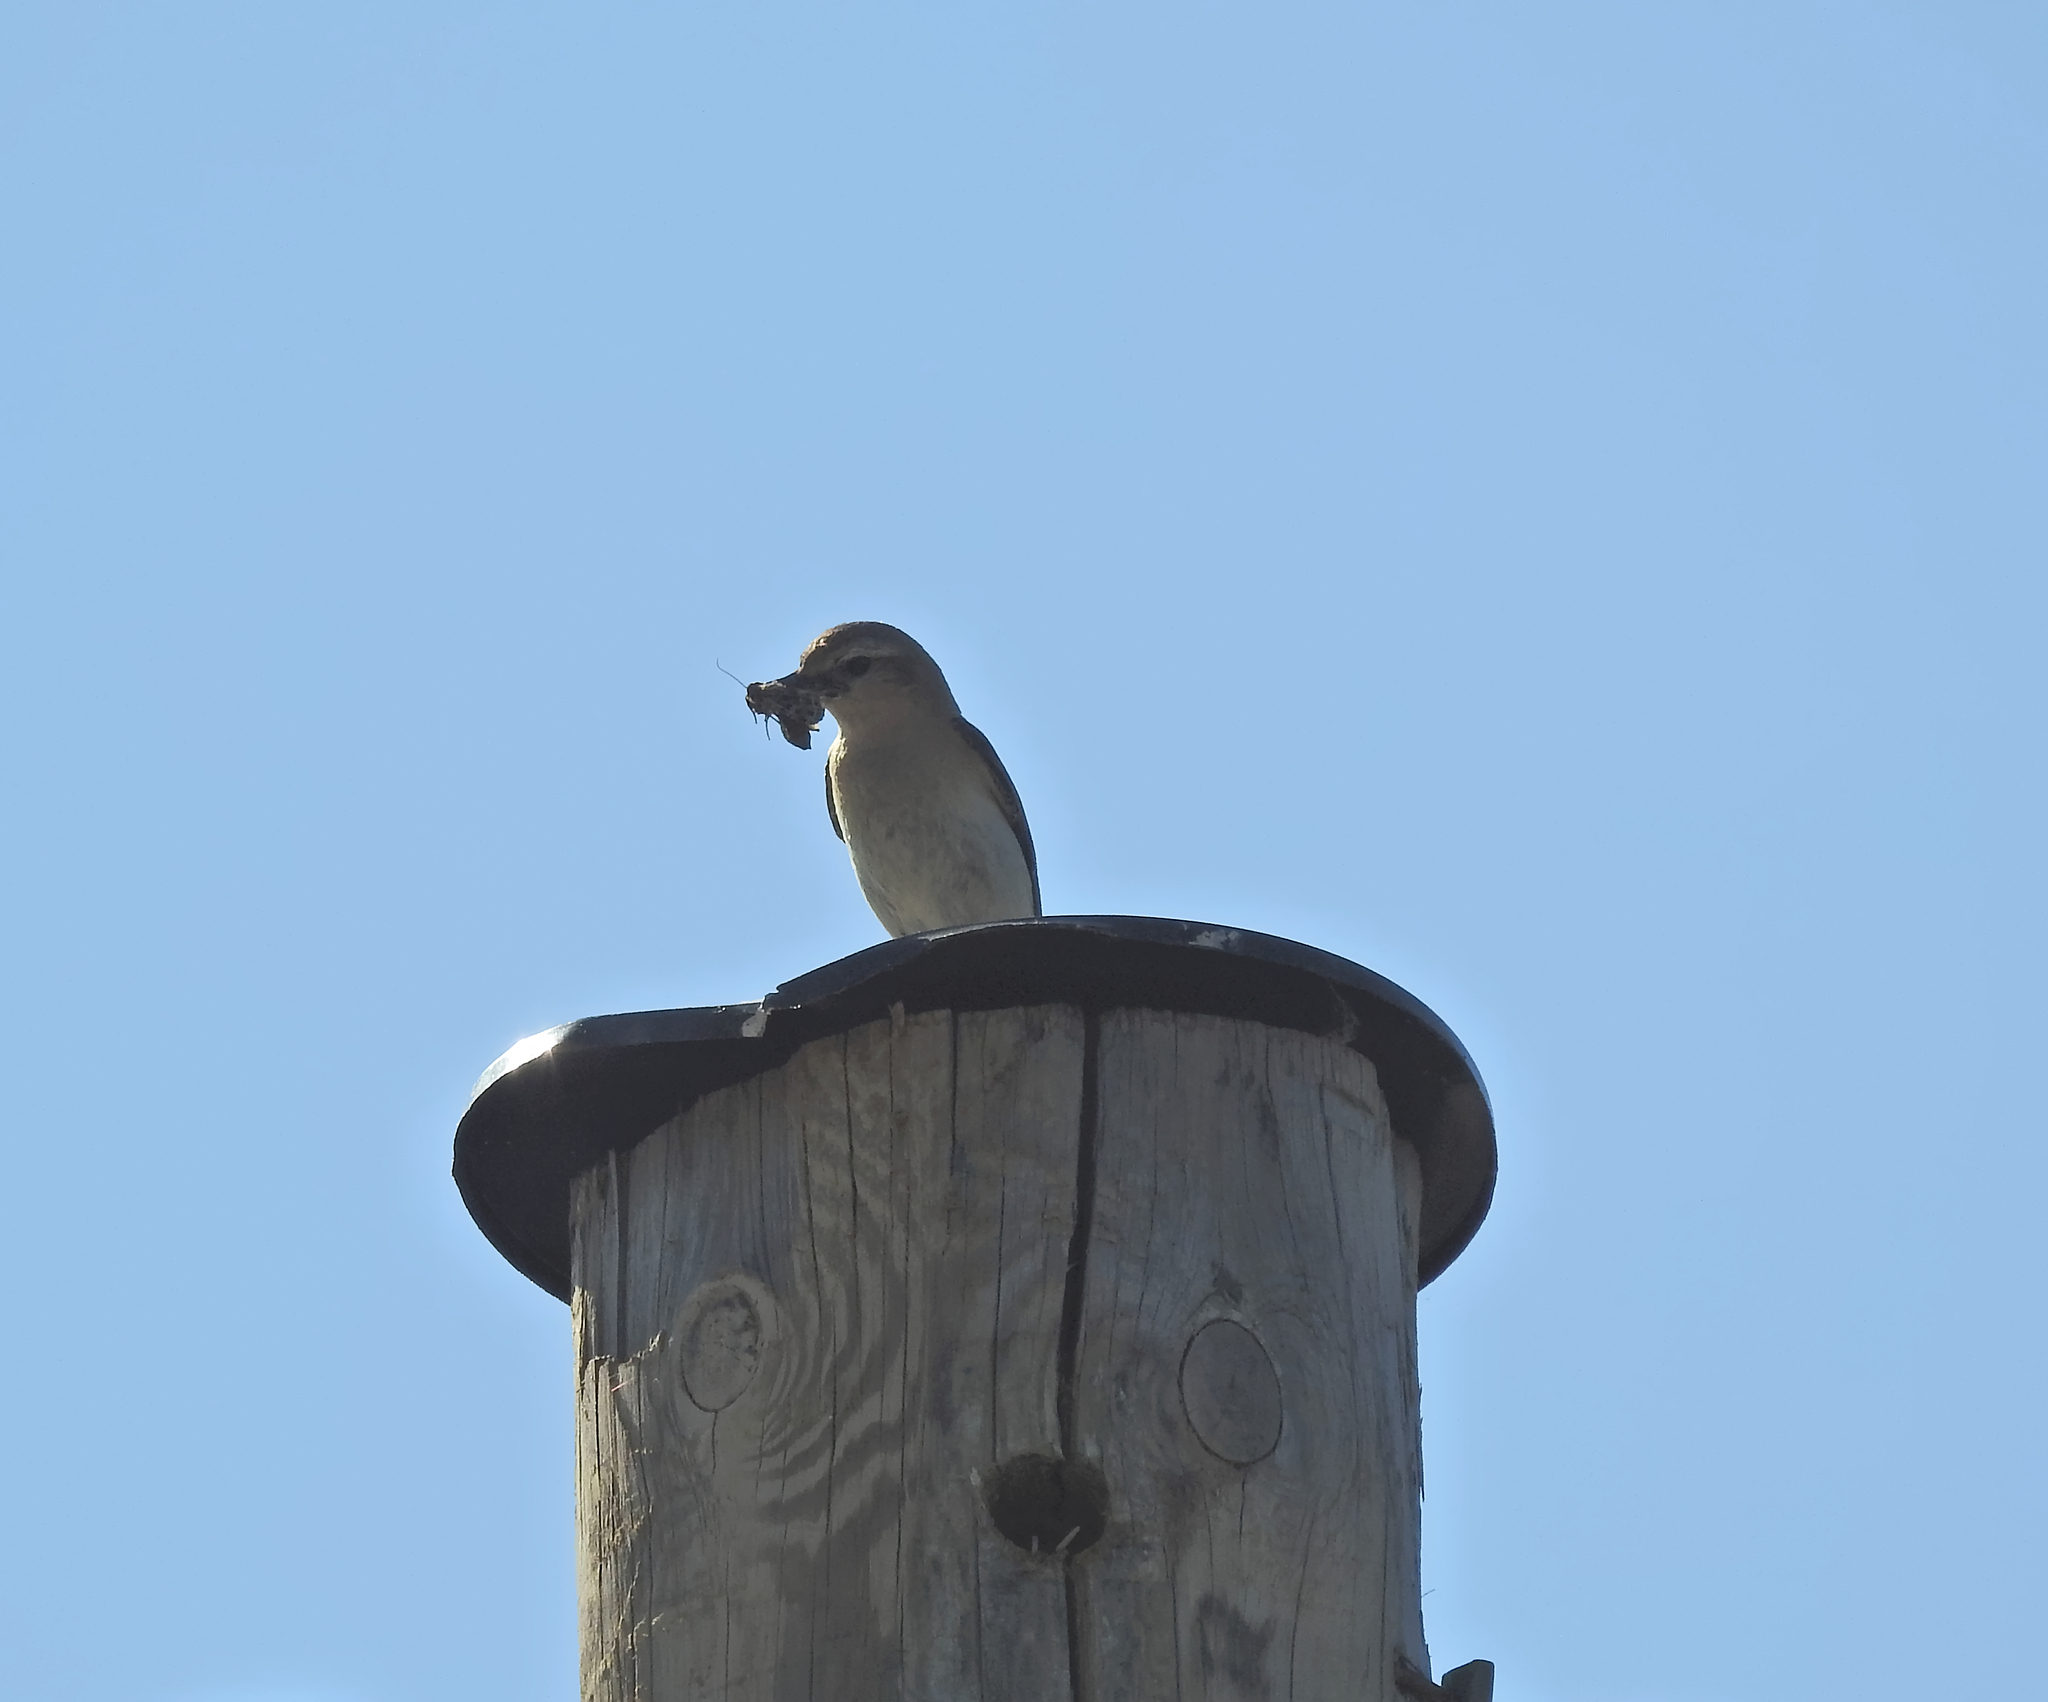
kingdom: Animalia
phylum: Chordata
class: Aves
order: Passeriformes
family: Muscicapidae
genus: Oenanthe
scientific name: Oenanthe oenanthe
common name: Northern wheatear
